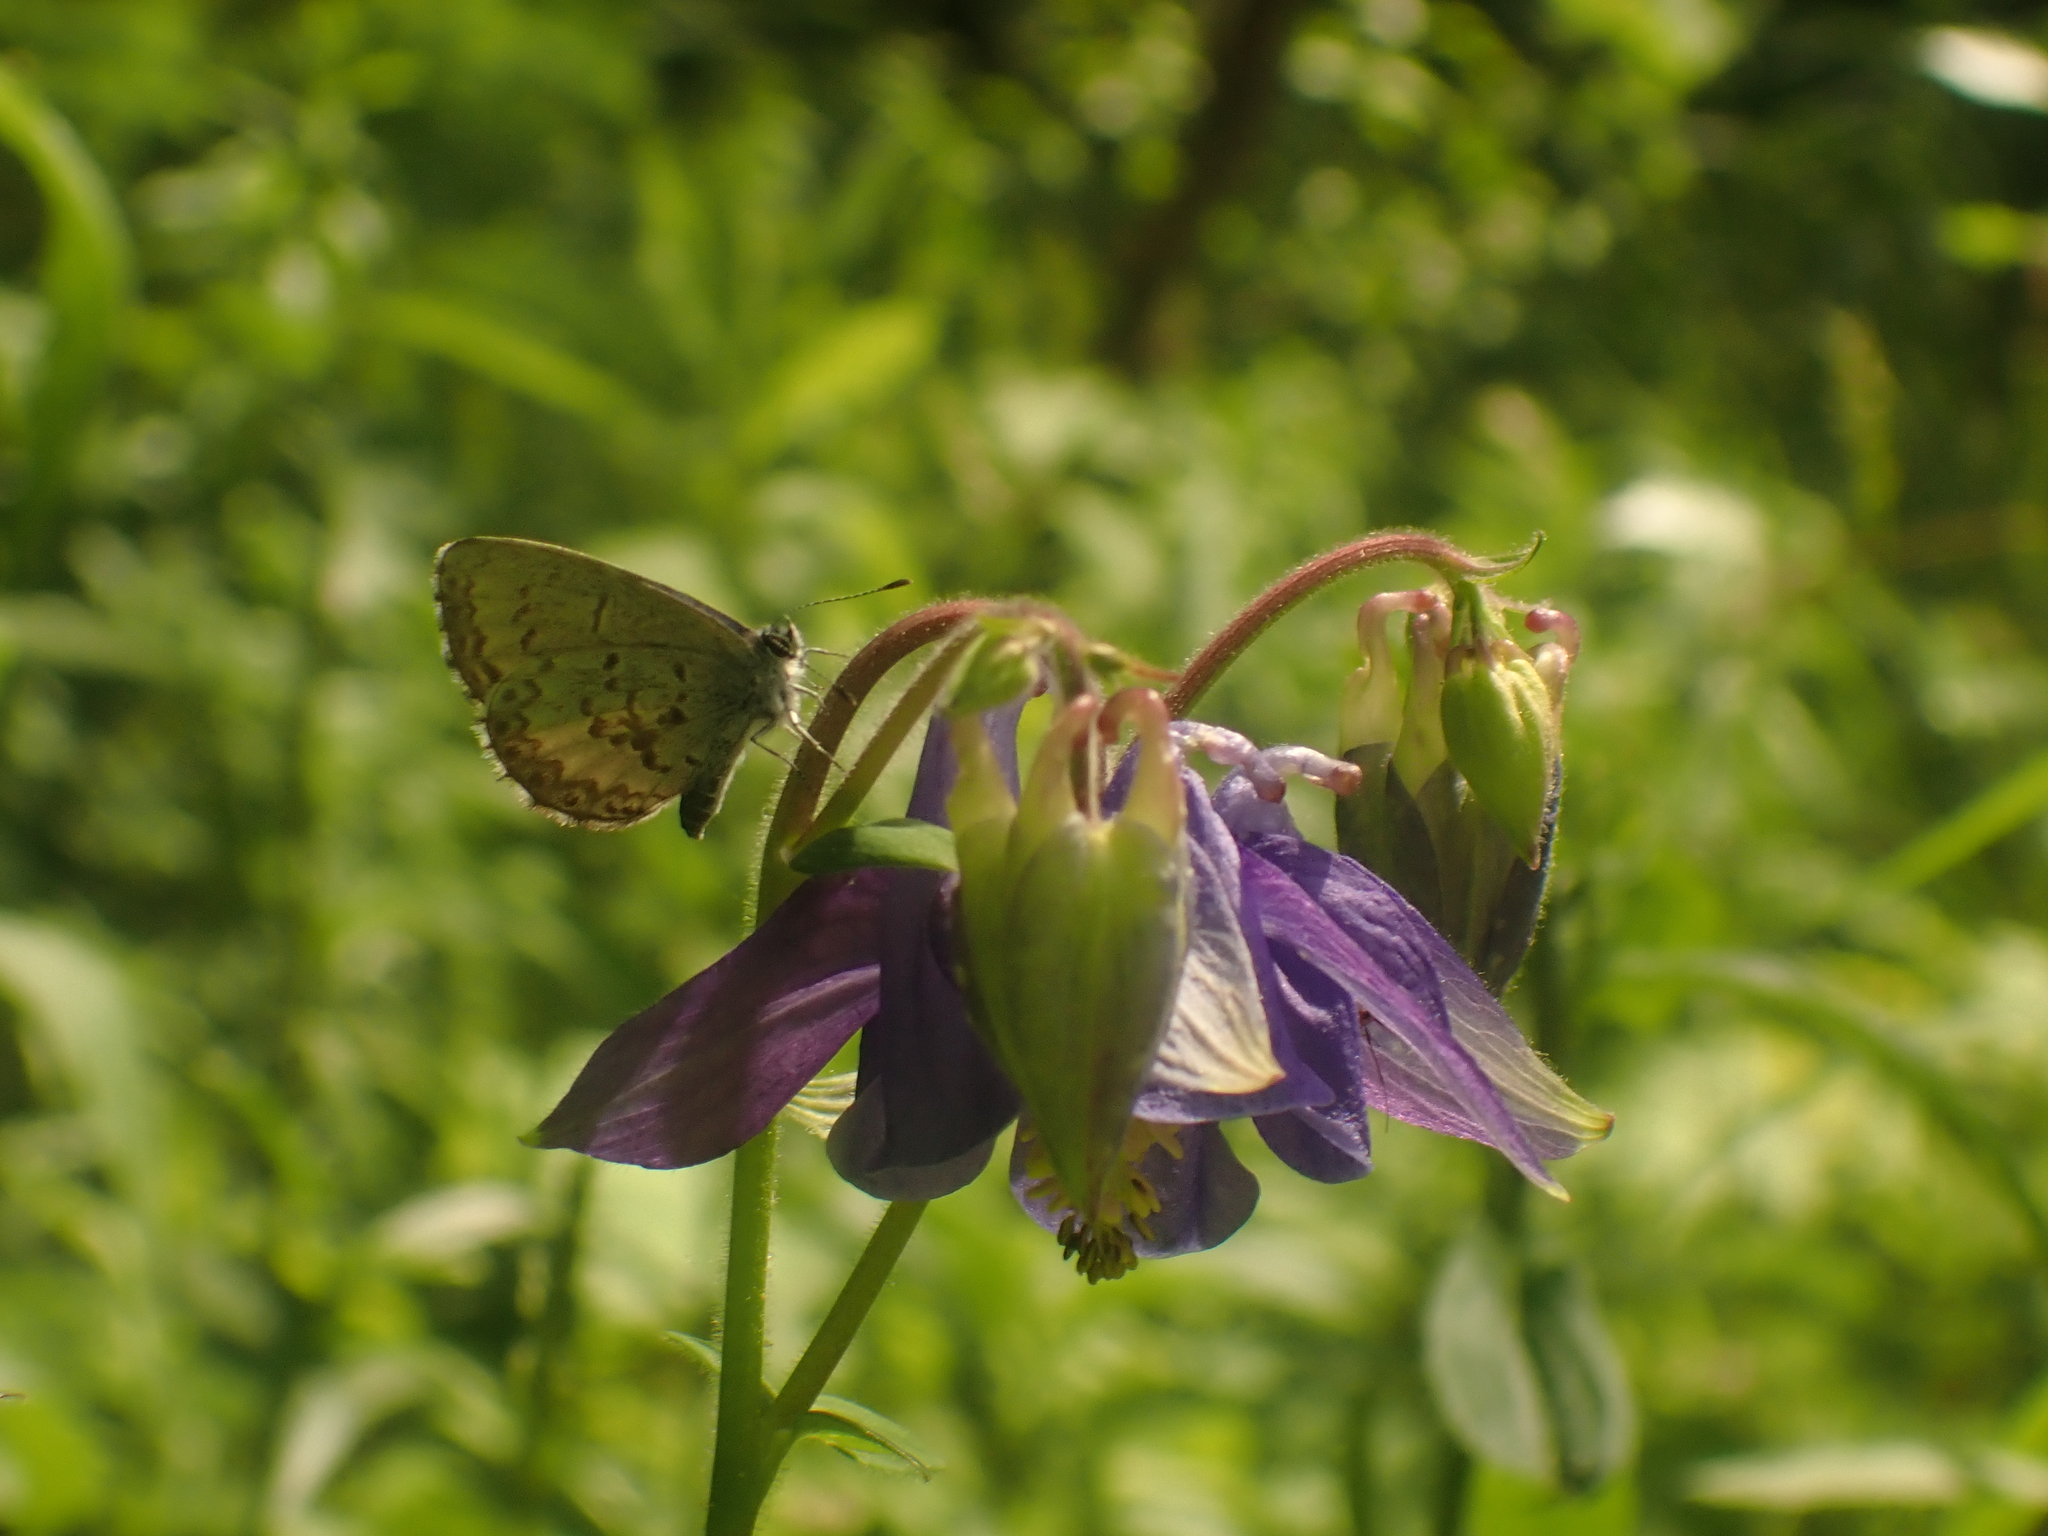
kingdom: Animalia
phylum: Arthropoda
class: Insecta
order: Lepidoptera
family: Lycaenidae
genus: Celastrina
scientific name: Celastrina lucia
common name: Lucia azure
